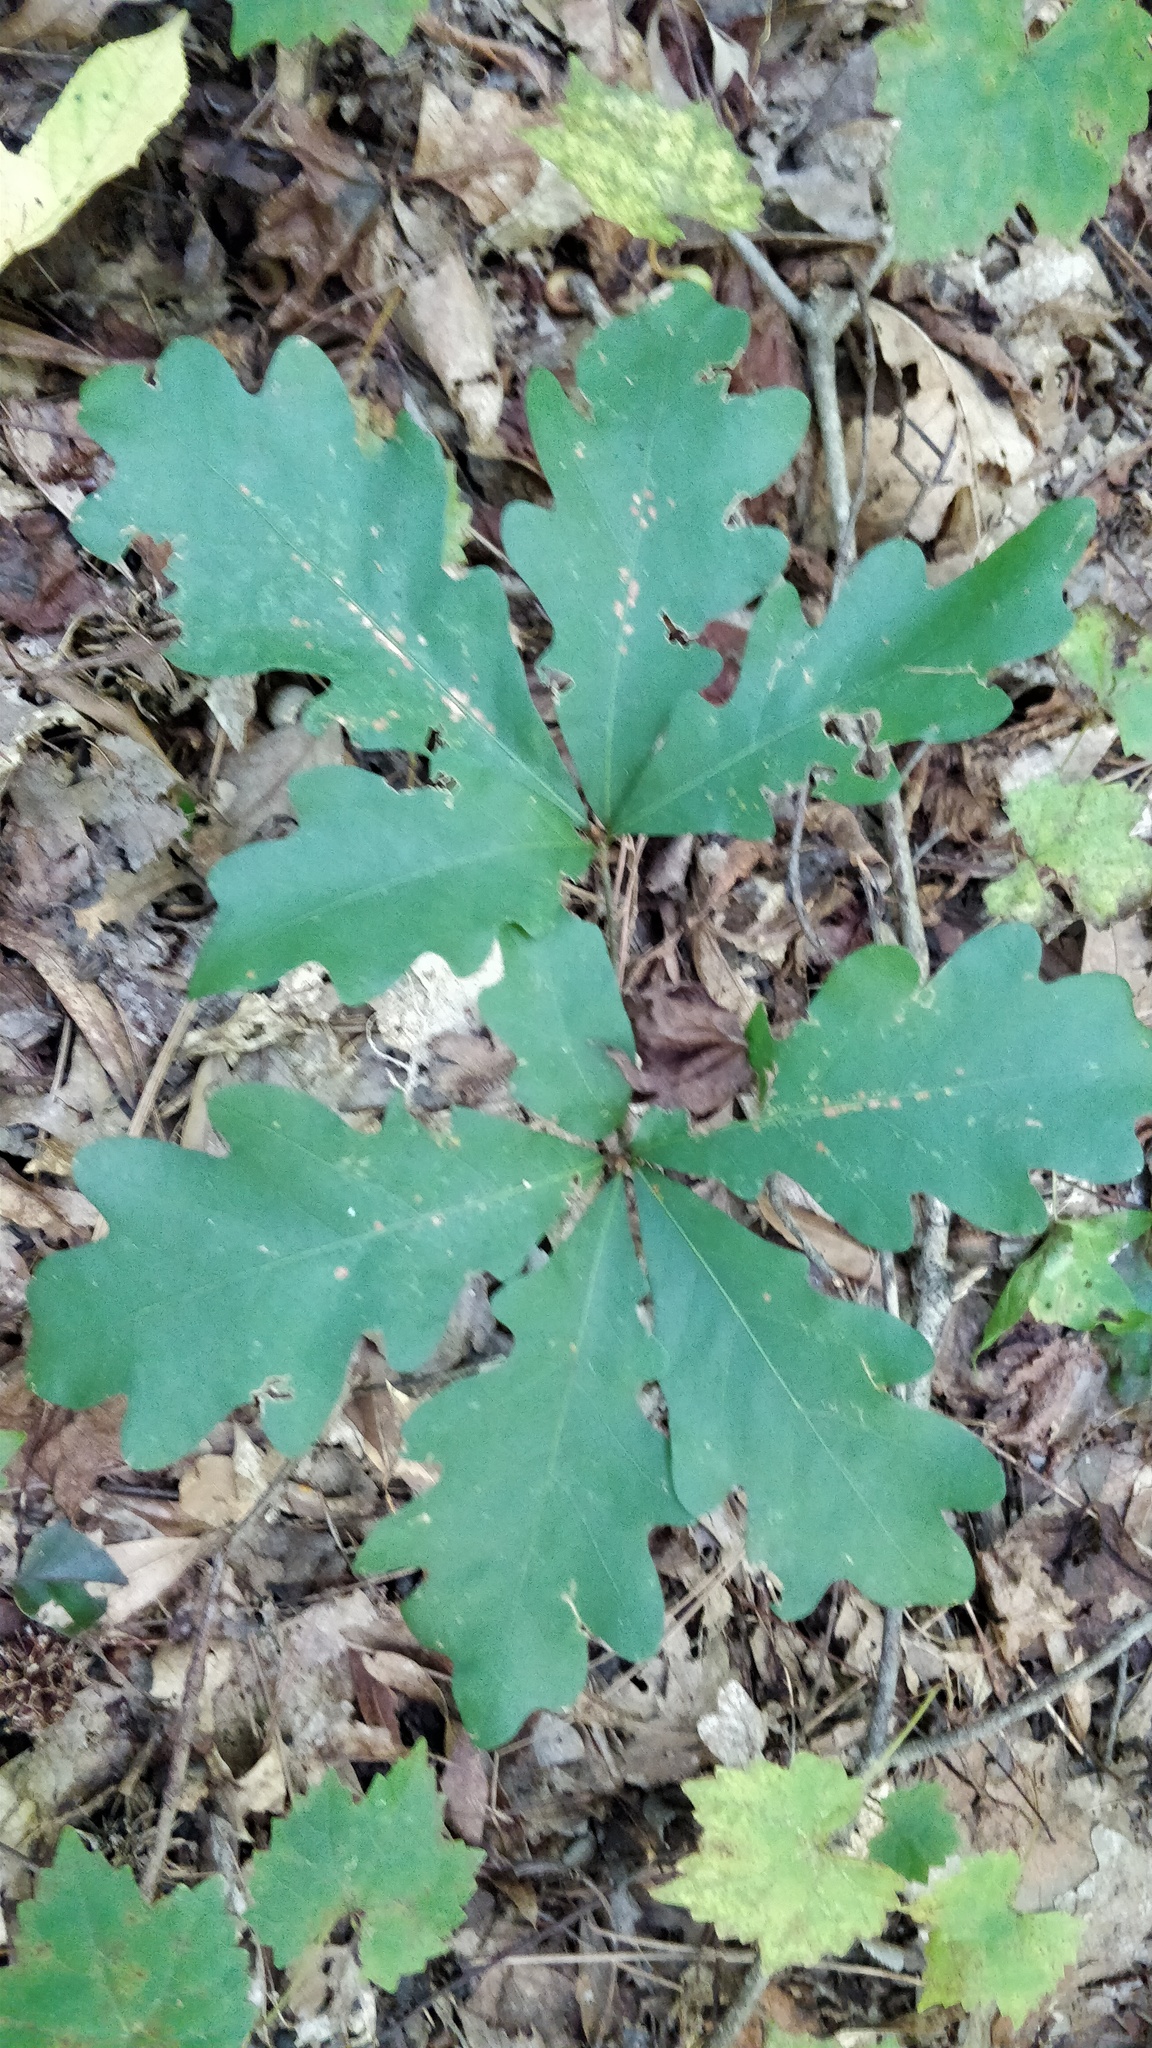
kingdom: Plantae
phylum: Tracheophyta
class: Magnoliopsida
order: Fagales
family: Fagaceae
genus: Quercus
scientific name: Quercus alba
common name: White oak
